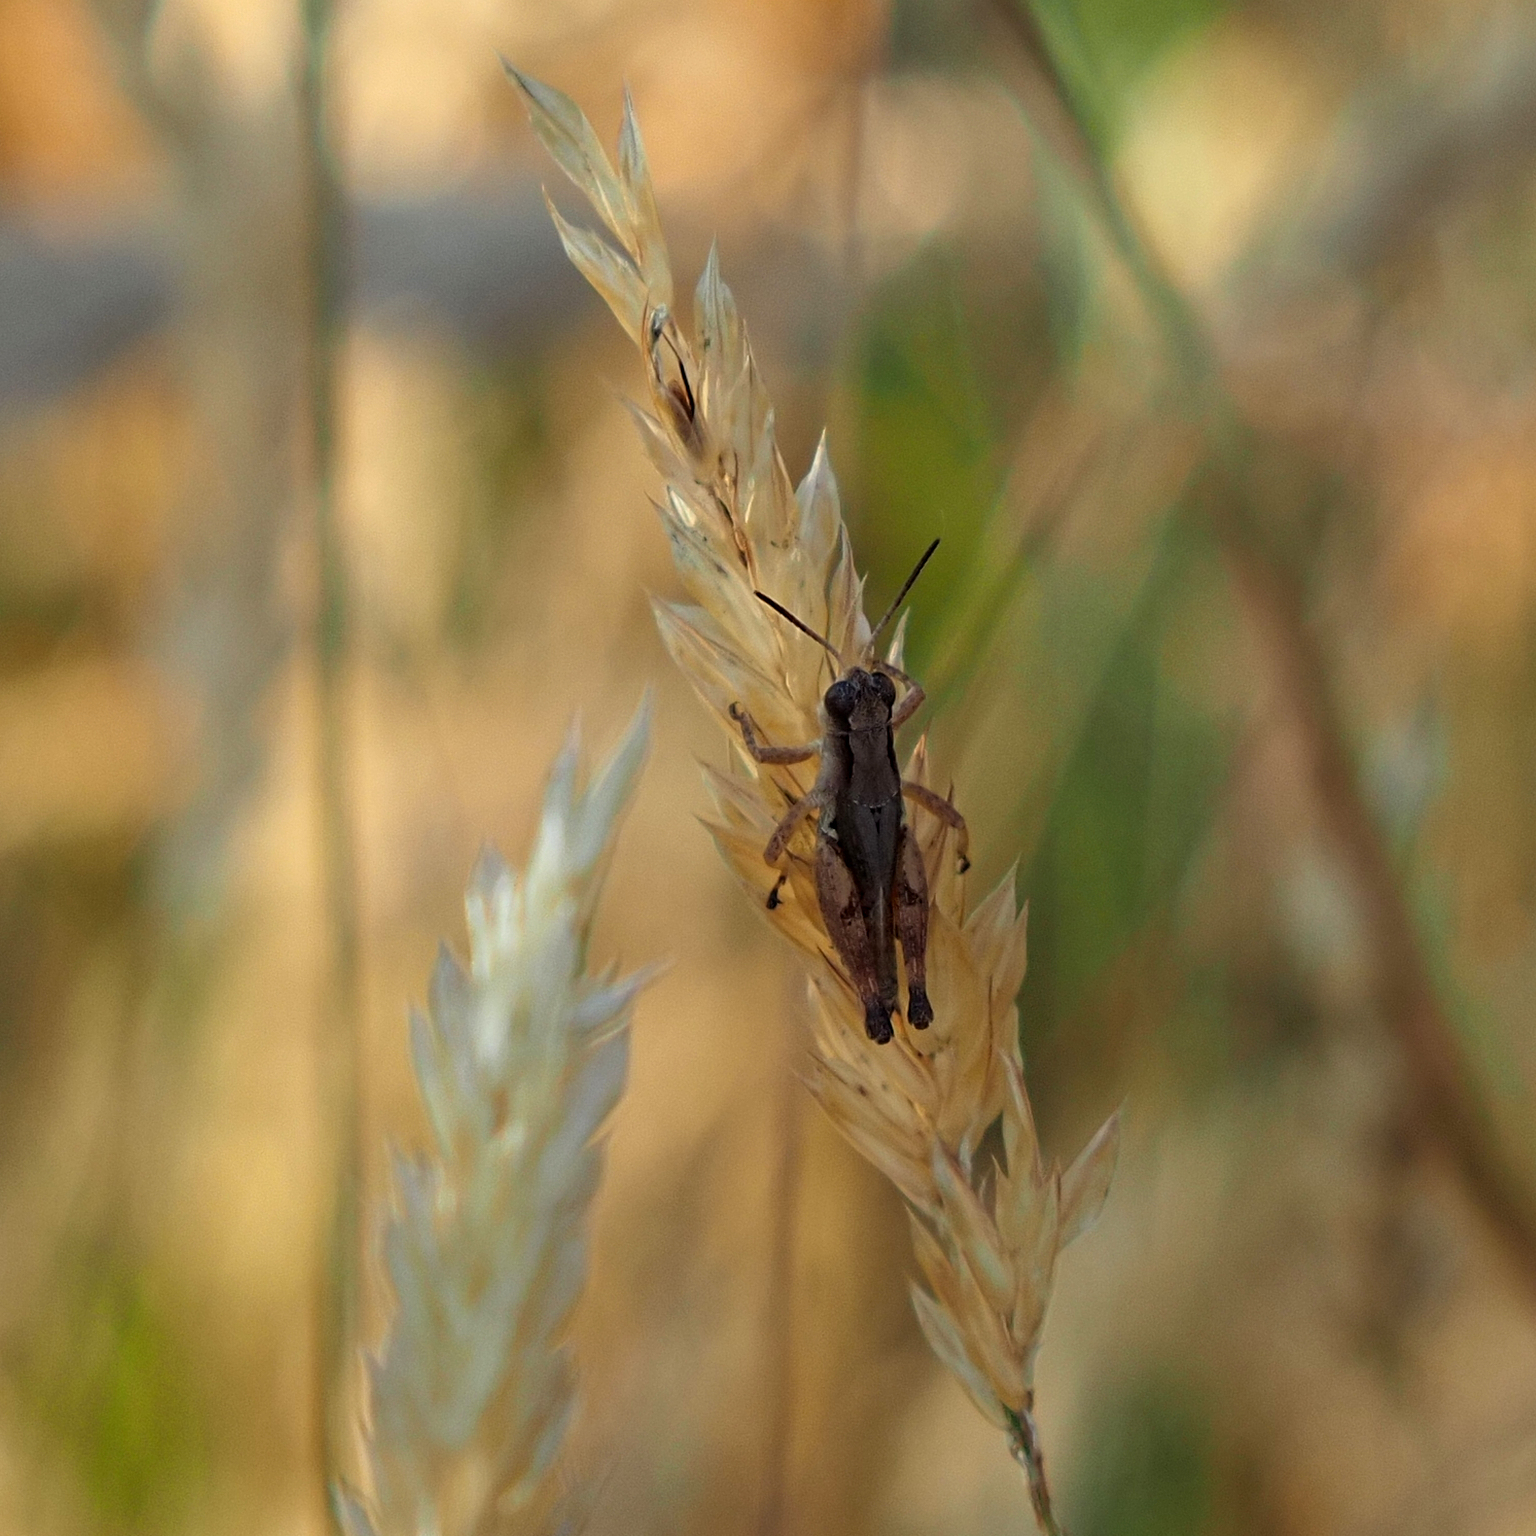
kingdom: Animalia
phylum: Arthropoda
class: Insecta
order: Orthoptera
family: Acrididae
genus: Phaulacridium
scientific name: Phaulacridium vittatum
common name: Wingless grasshopper
